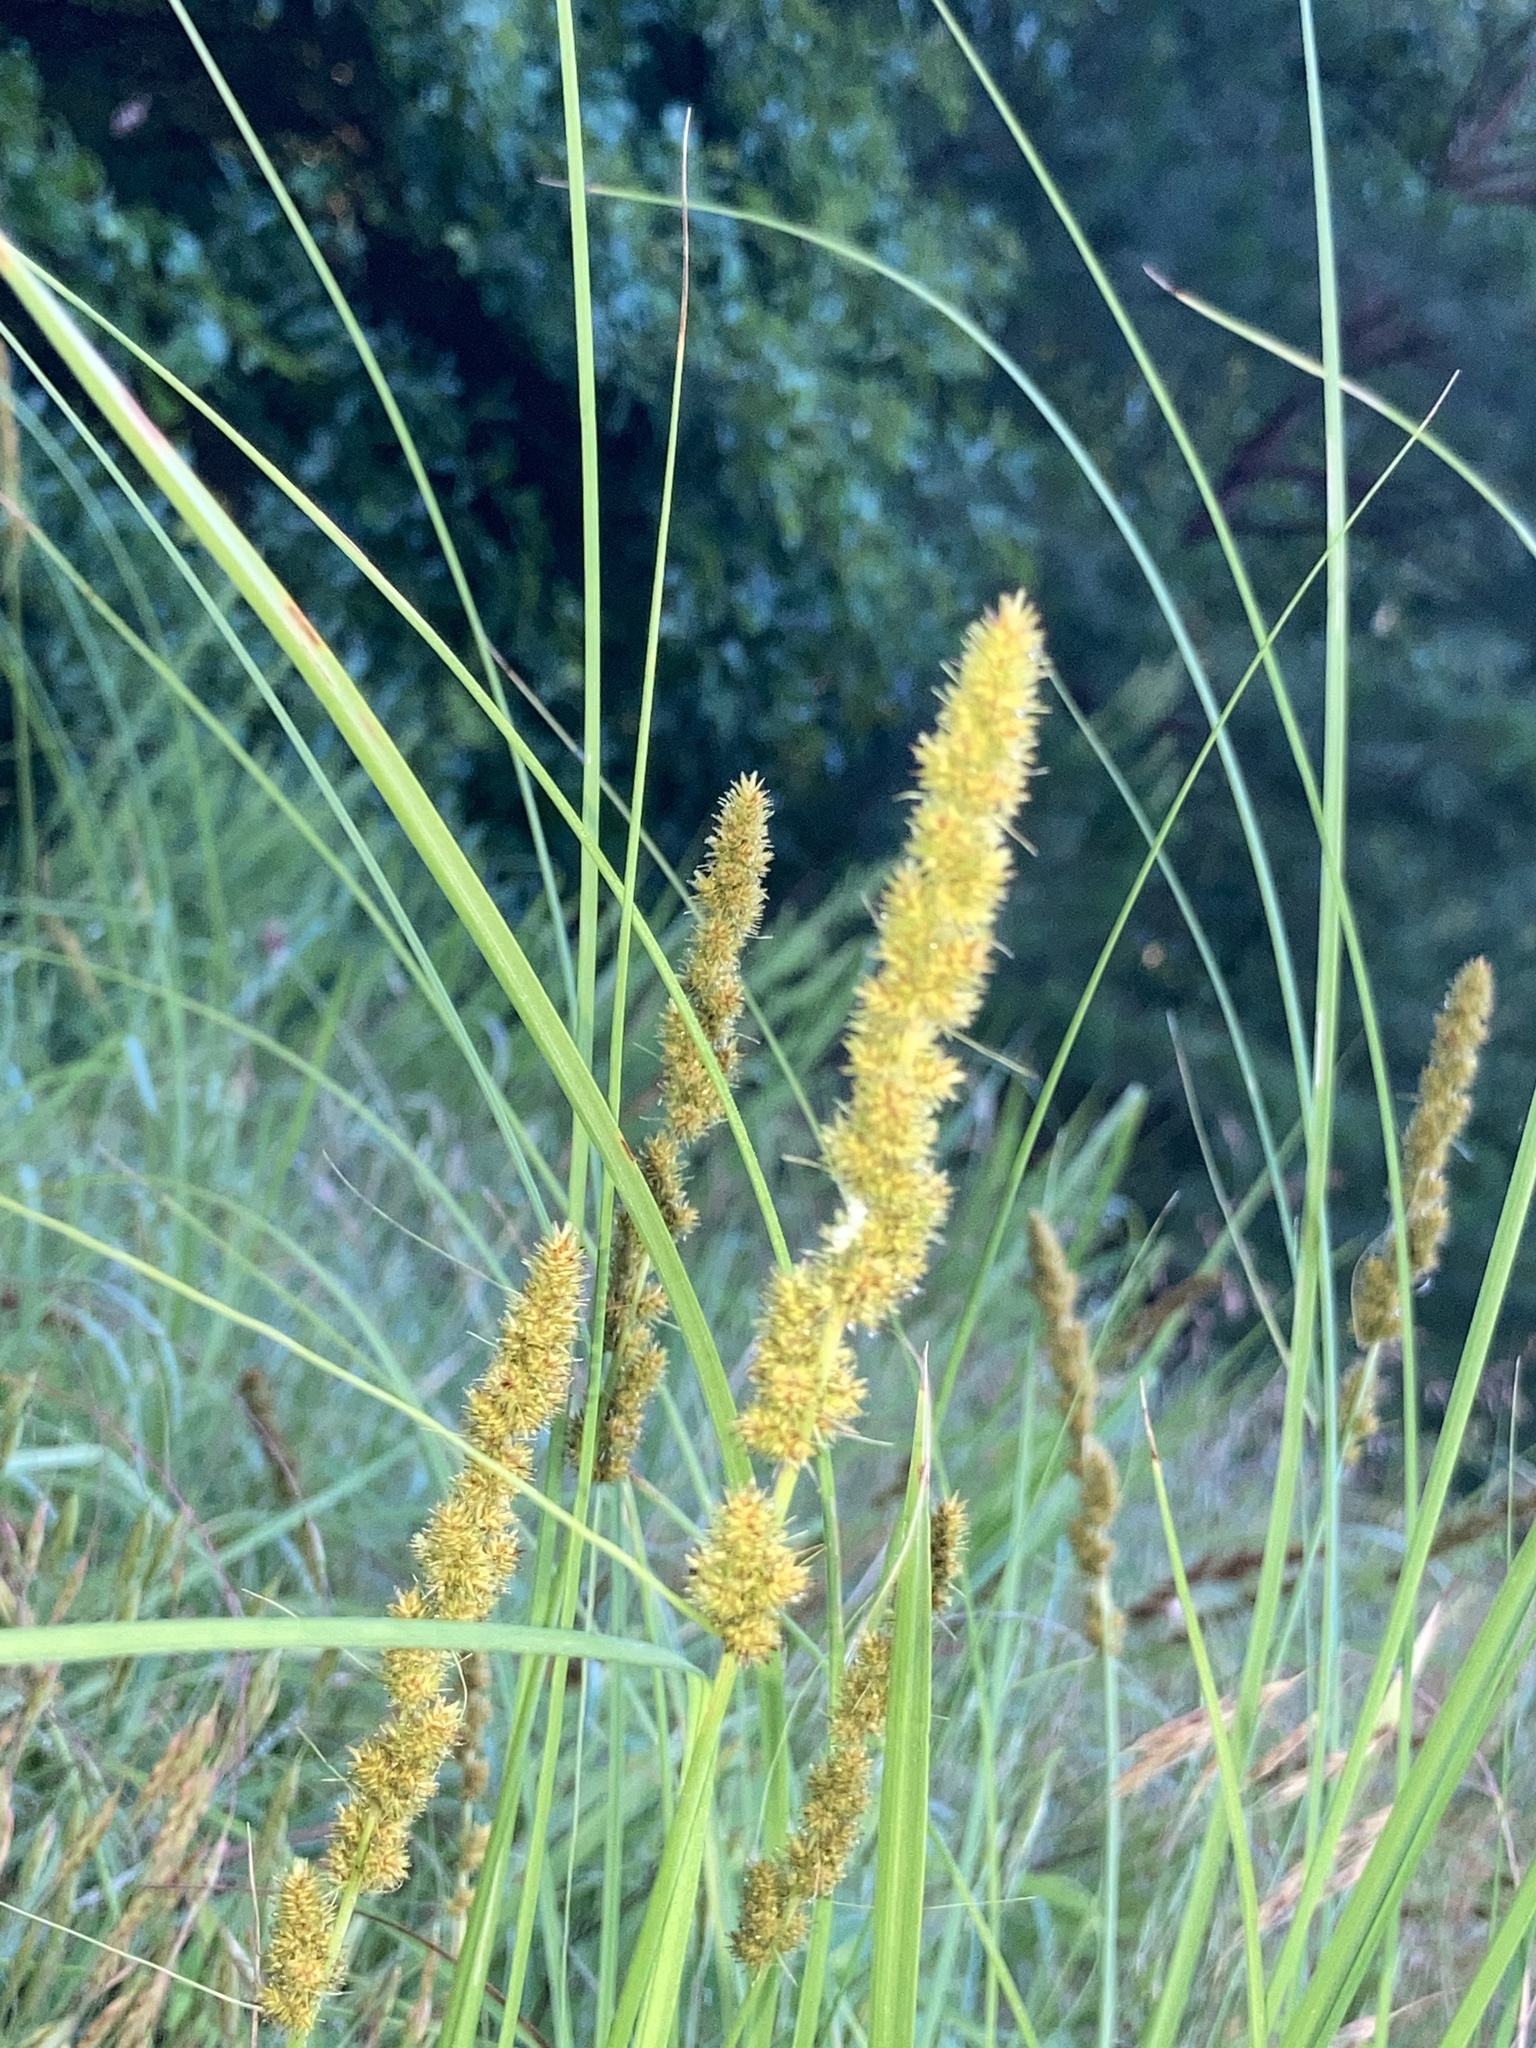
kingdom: Plantae
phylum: Tracheophyta
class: Liliopsida
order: Poales
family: Cyperaceae
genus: Carex
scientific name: Carex vulpinoidea
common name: American fox-sedge
